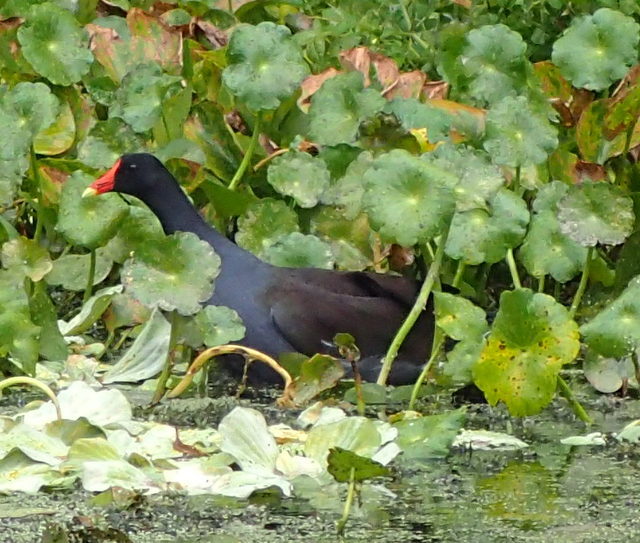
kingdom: Animalia
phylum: Chordata
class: Aves
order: Gruiformes
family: Rallidae
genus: Gallinula
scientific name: Gallinula chloropus
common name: Common moorhen
